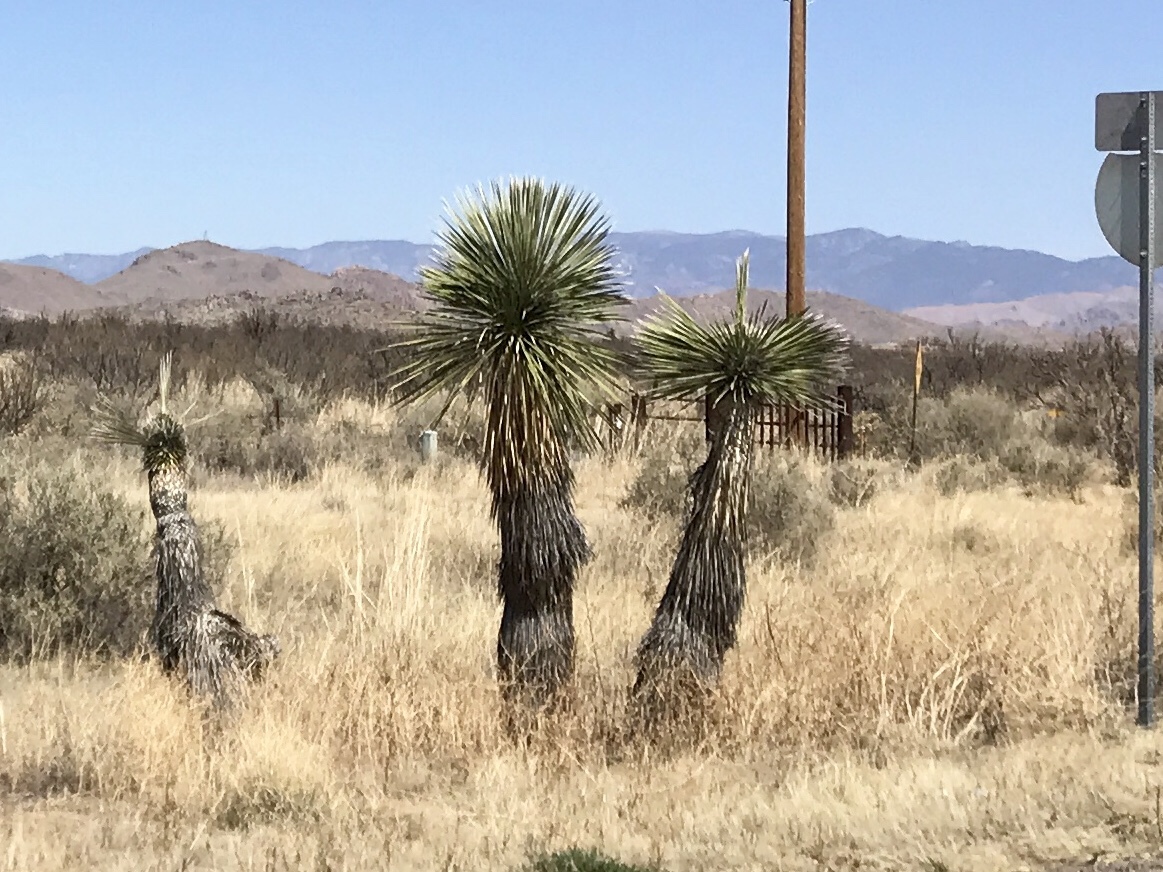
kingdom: Plantae
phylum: Tracheophyta
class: Liliopsida
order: Asparagales
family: Asparagaceae
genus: Yucca
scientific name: Yucca elata
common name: Palmella
